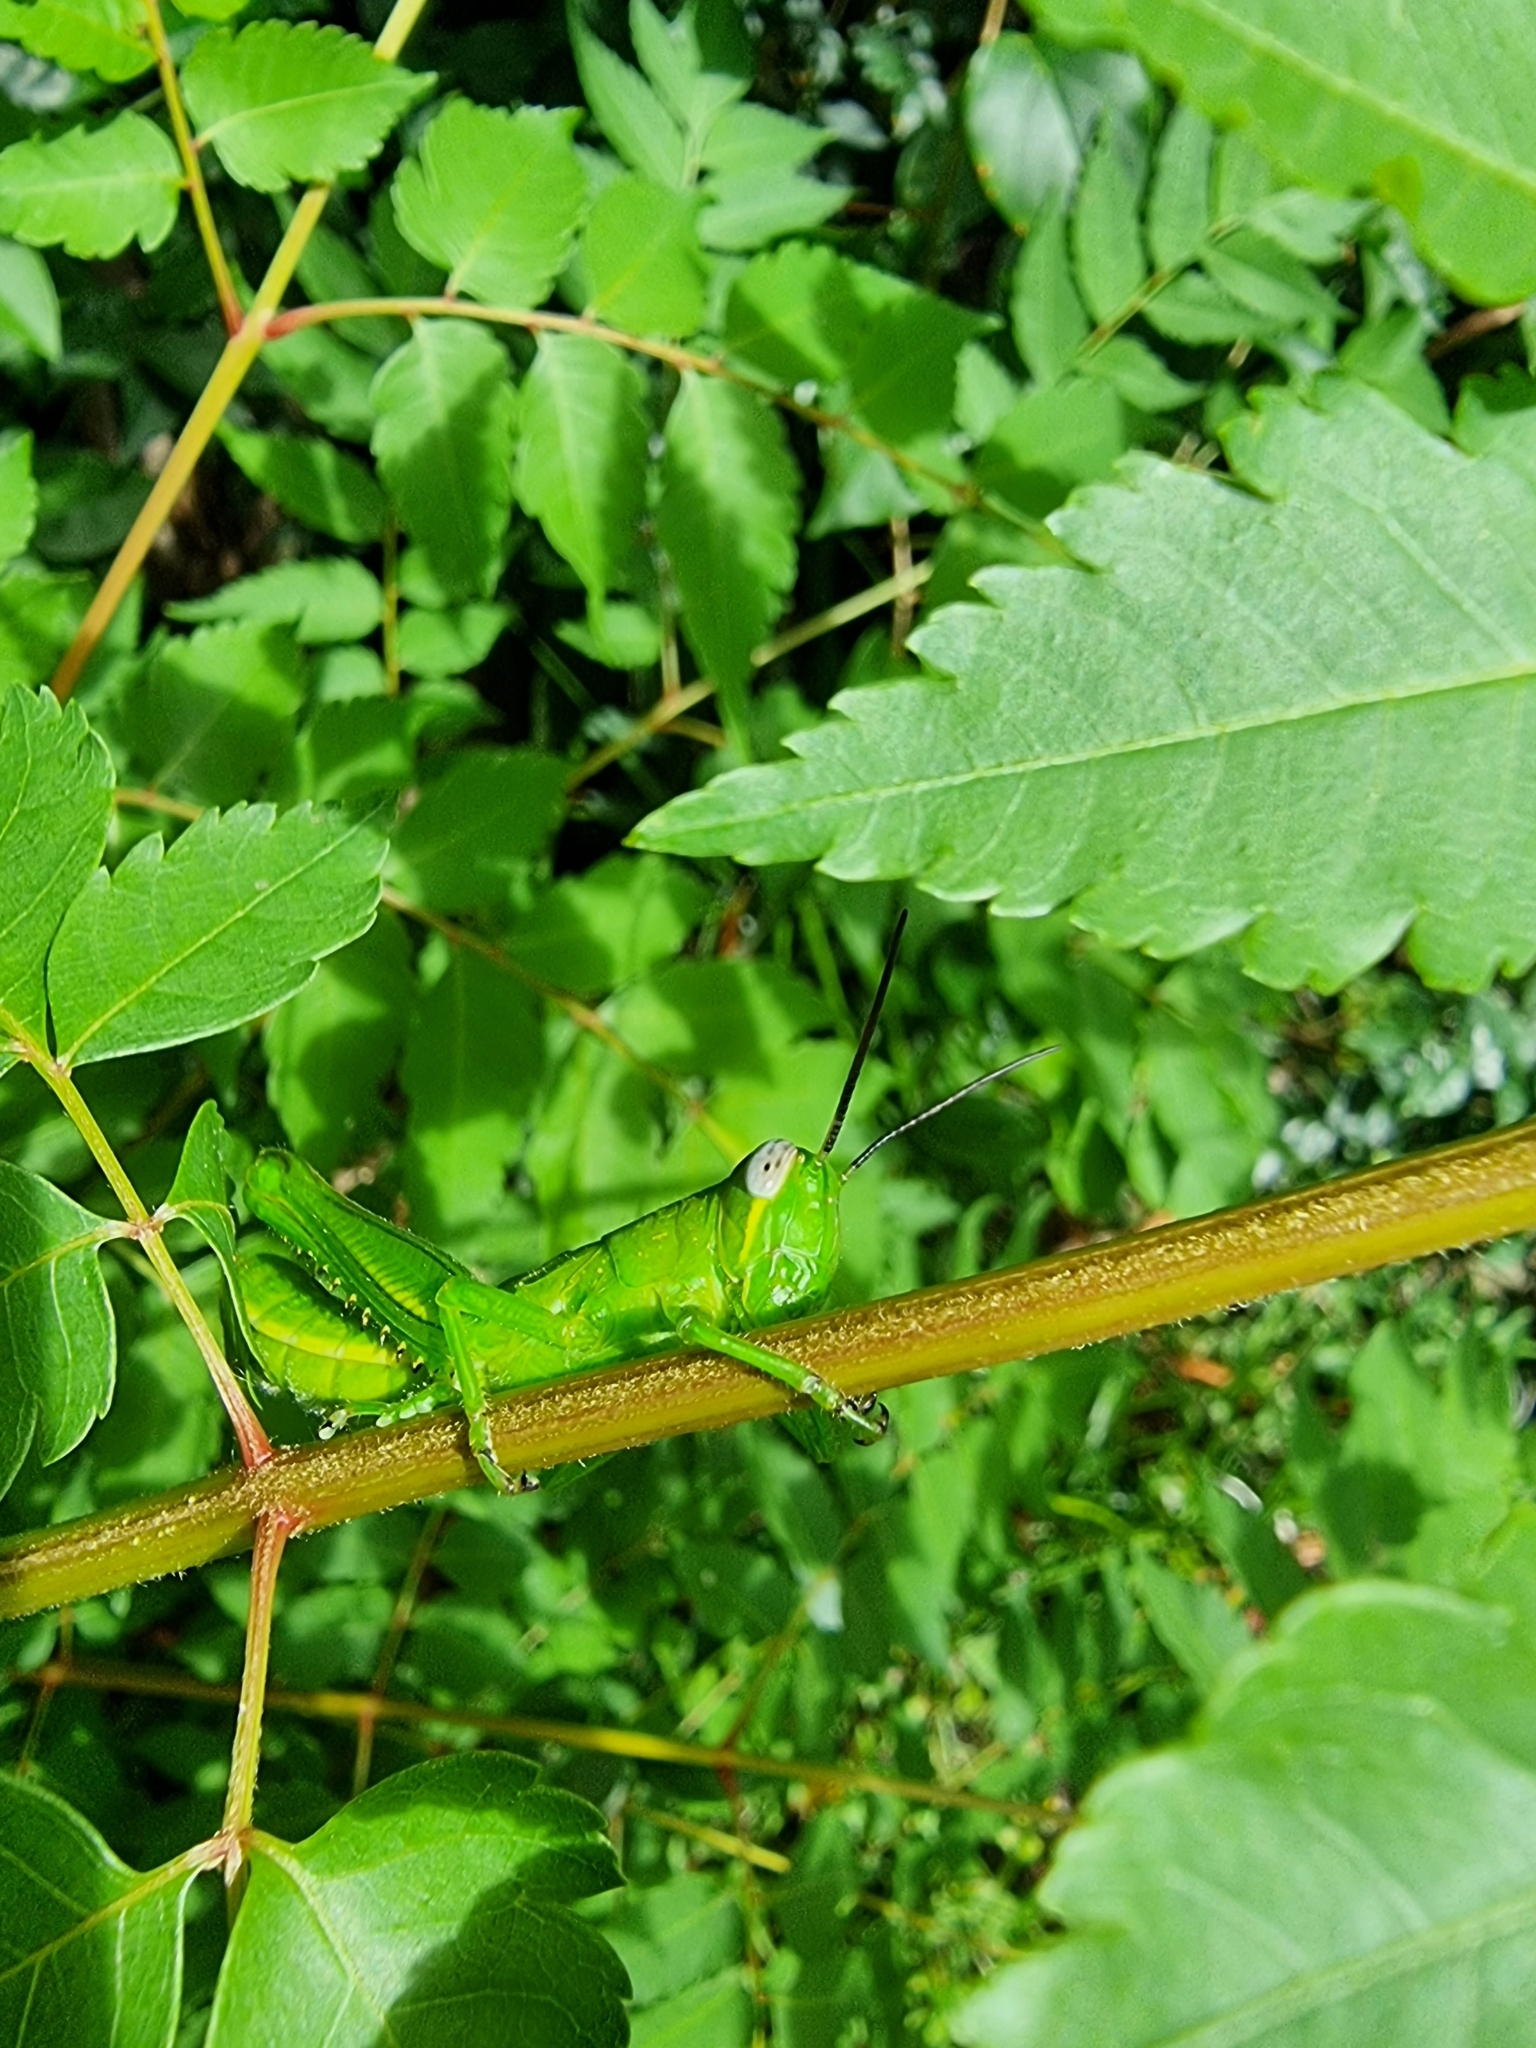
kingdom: Animalia
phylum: Arthropoda
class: Insecta
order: Orthoptera
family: Acrididae
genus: Valanga
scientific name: Valanga irregularis
